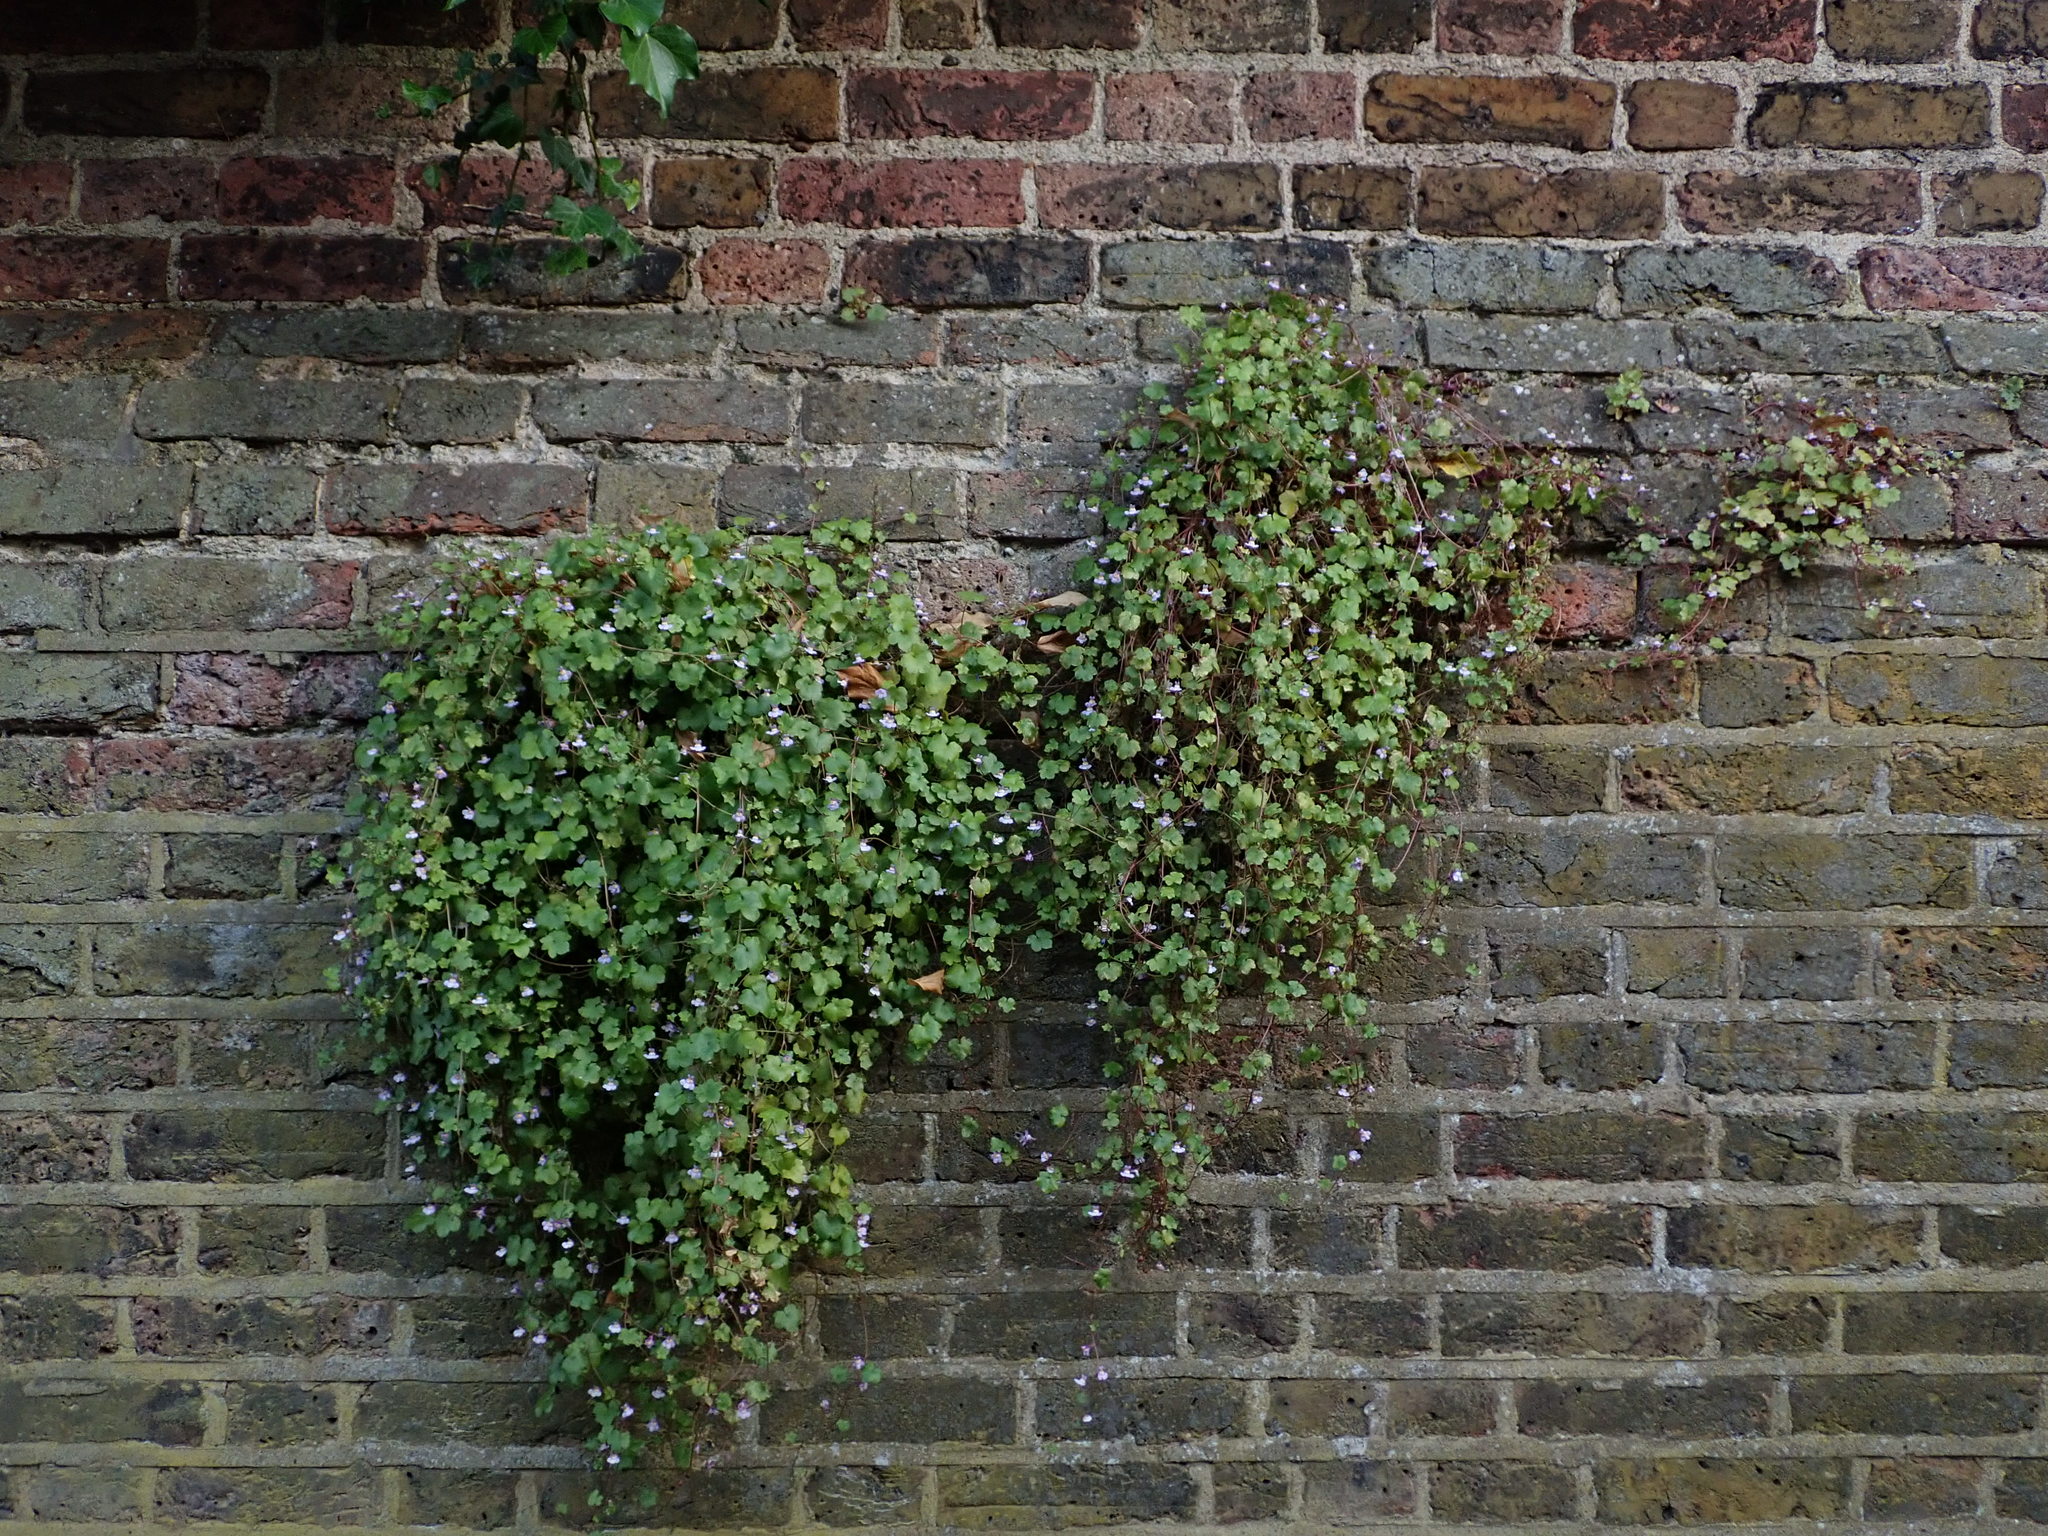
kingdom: Plantae
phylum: Tracheophyta
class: Magnoliopsida
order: Lamiales
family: Plantaginaceae
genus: Cymbalaria
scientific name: Cymbalaria muralis
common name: Ivy-leaved toadflax
